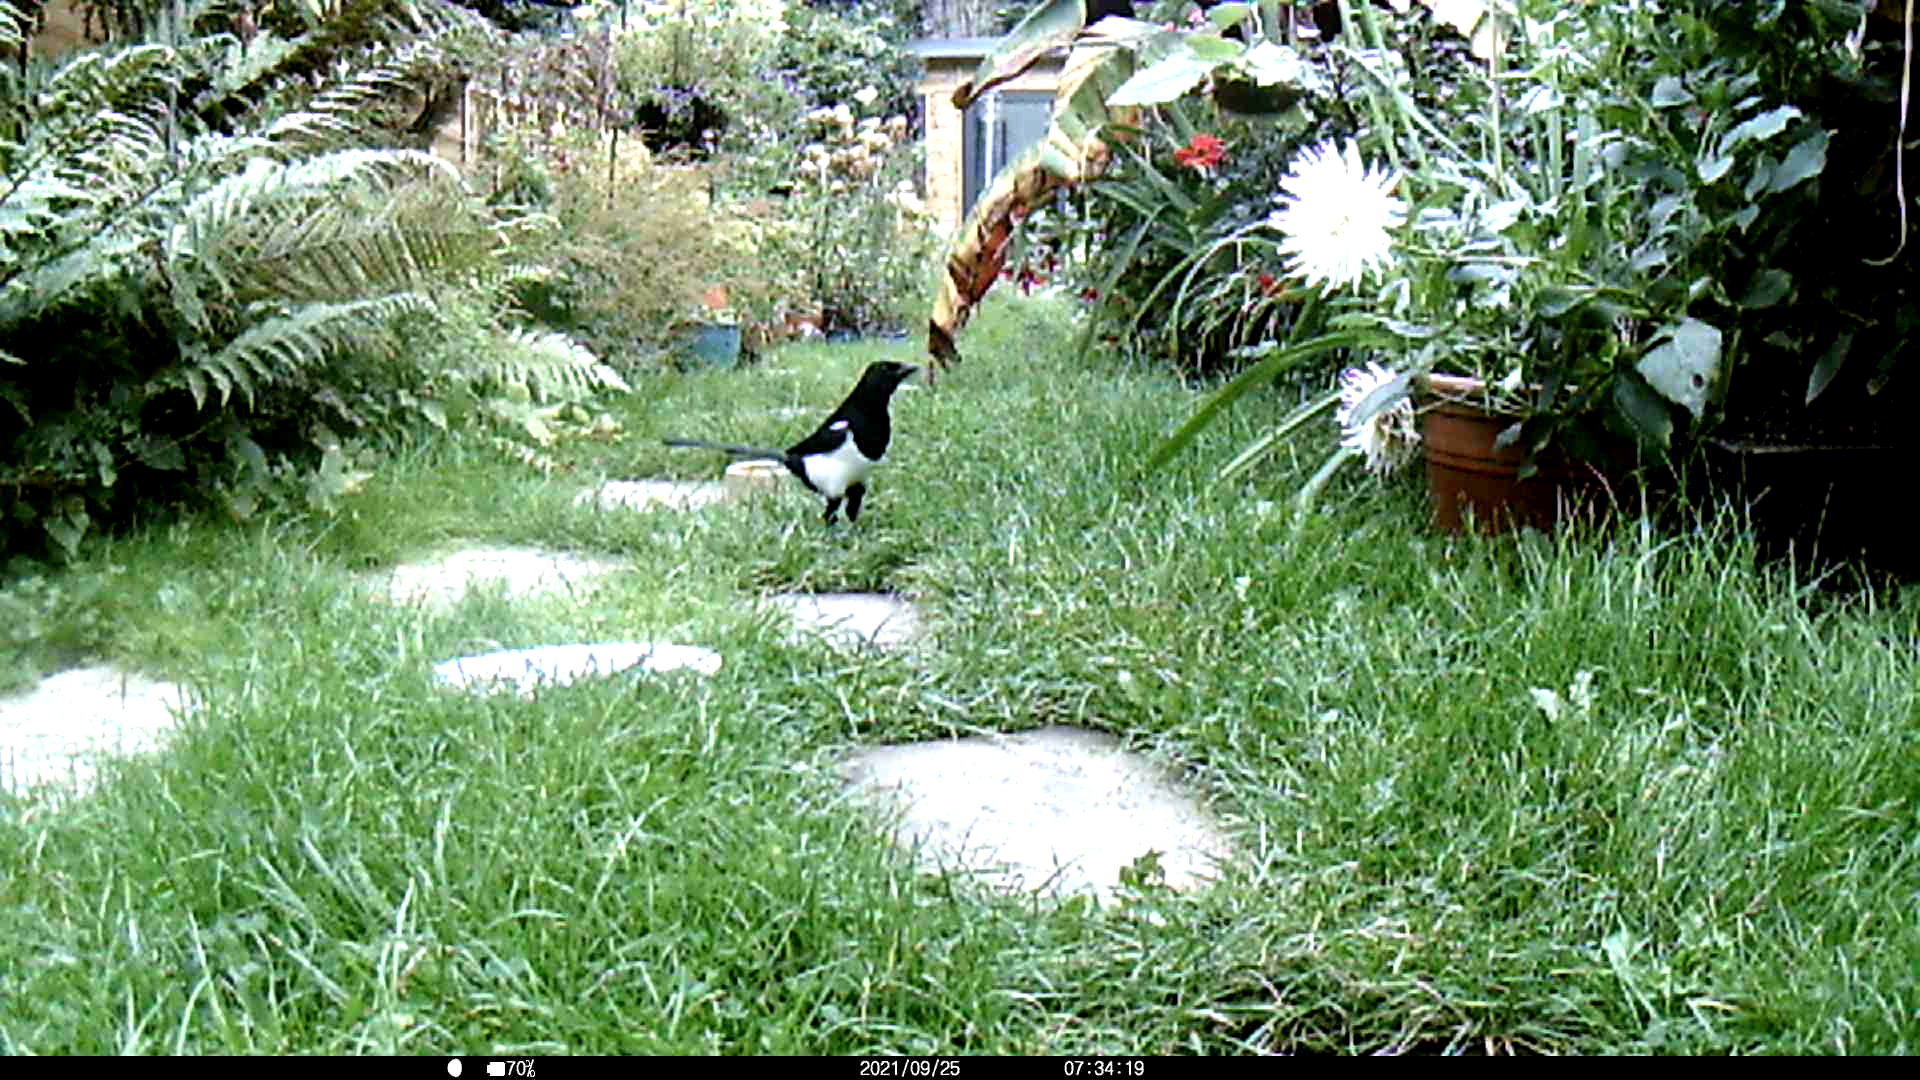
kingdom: Animalia
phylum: Chordata
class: Aves
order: Passeriformes
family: Corvidae
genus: Pica
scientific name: Pica pica
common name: Eurasian magpie
